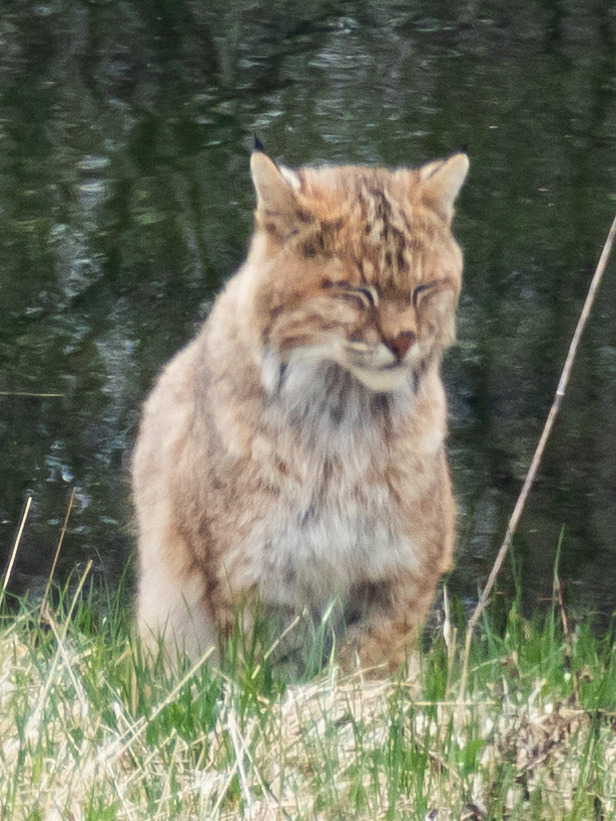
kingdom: Animalia
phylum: Chordata
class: Mammalia
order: Carnivora
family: Felidae
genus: Lynx
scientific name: Lynx rufus
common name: Bobcat
